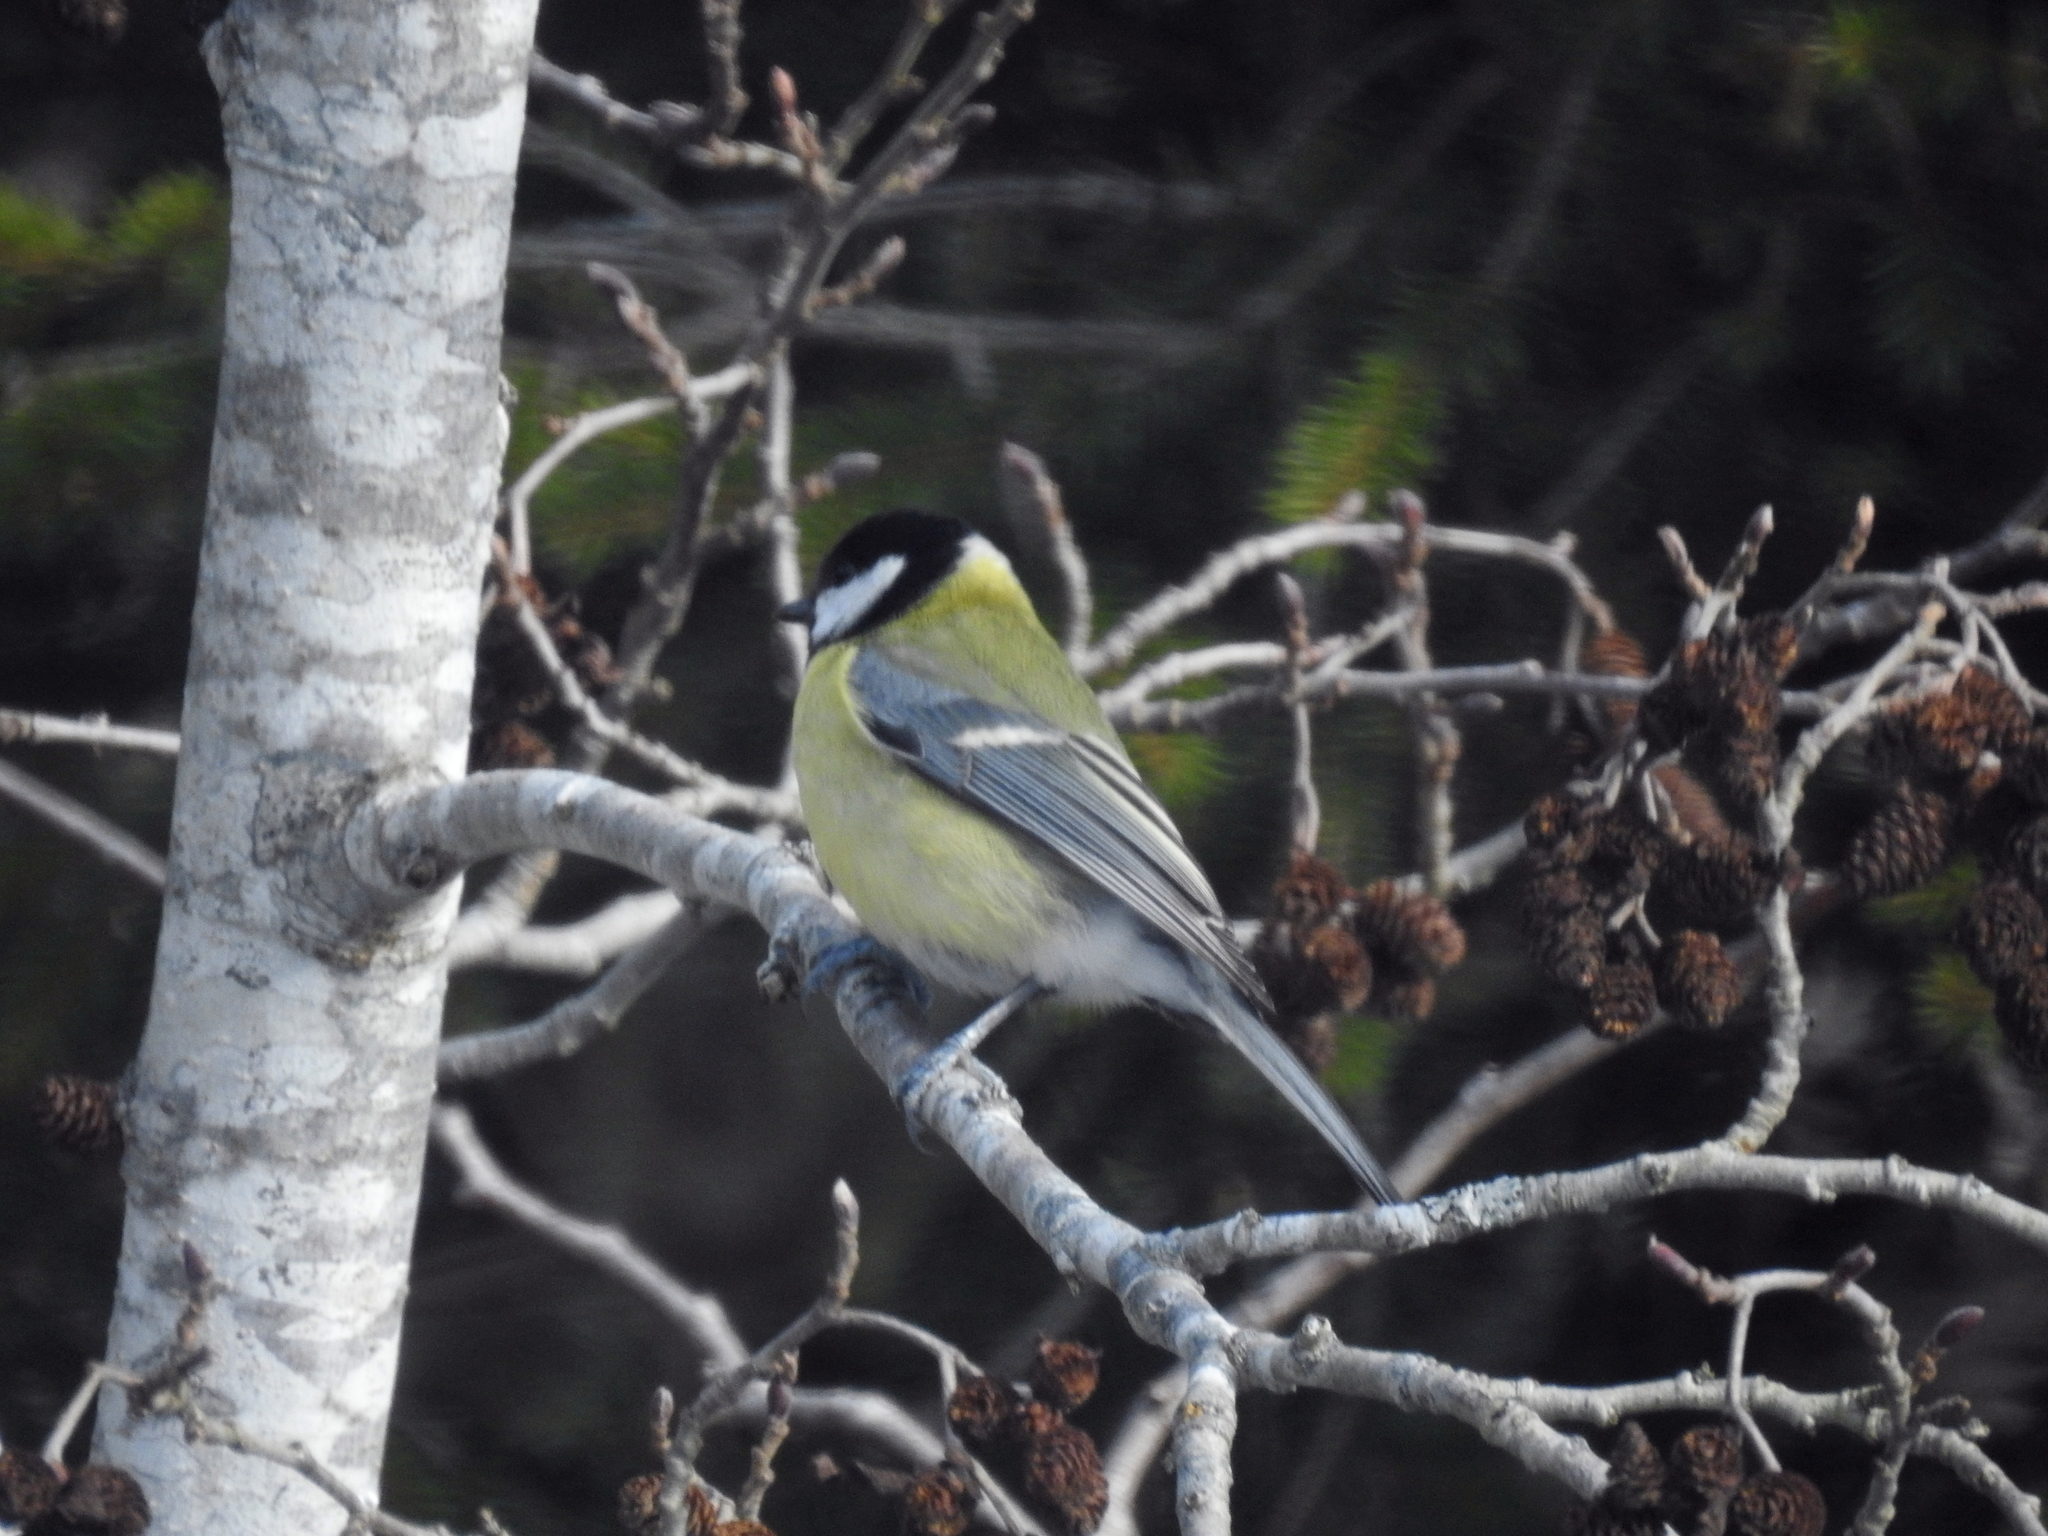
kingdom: Animalia
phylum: Chordata
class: Aves
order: Passeriformes
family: Paridae
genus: Parus
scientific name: Parus major
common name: Great tit
